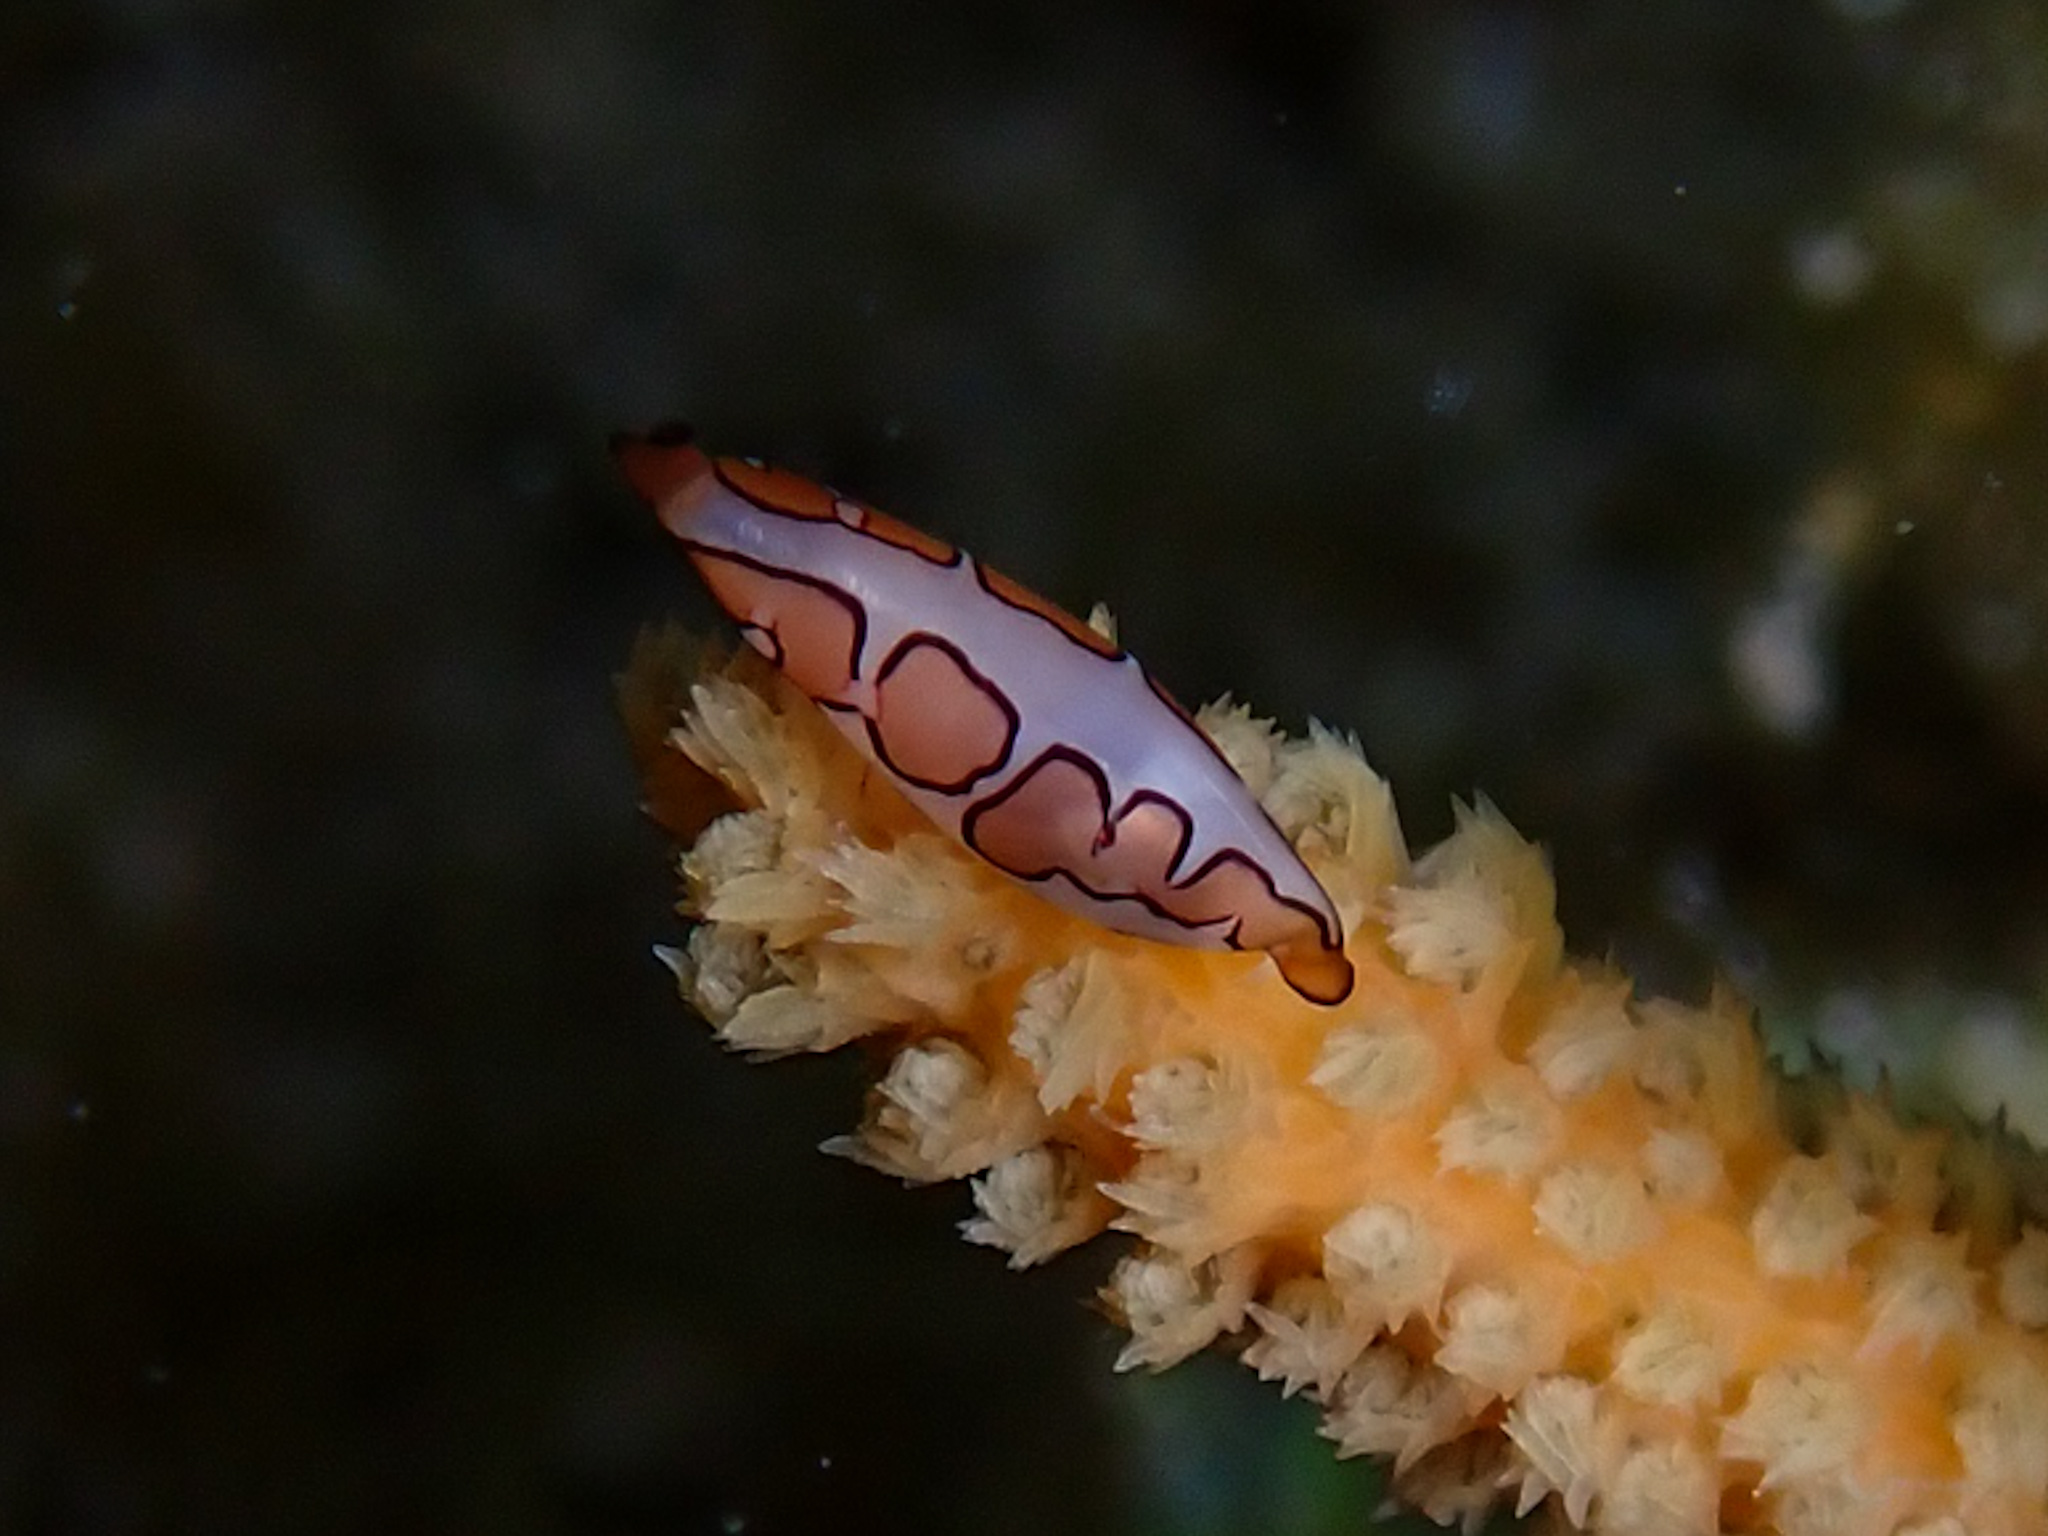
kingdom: Animalia
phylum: Mollusca
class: Gastropoda
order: Littorinimorpha
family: Ovulidae
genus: Cyphoma
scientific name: Cyphoma gibbosum
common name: Flamingo tongue
